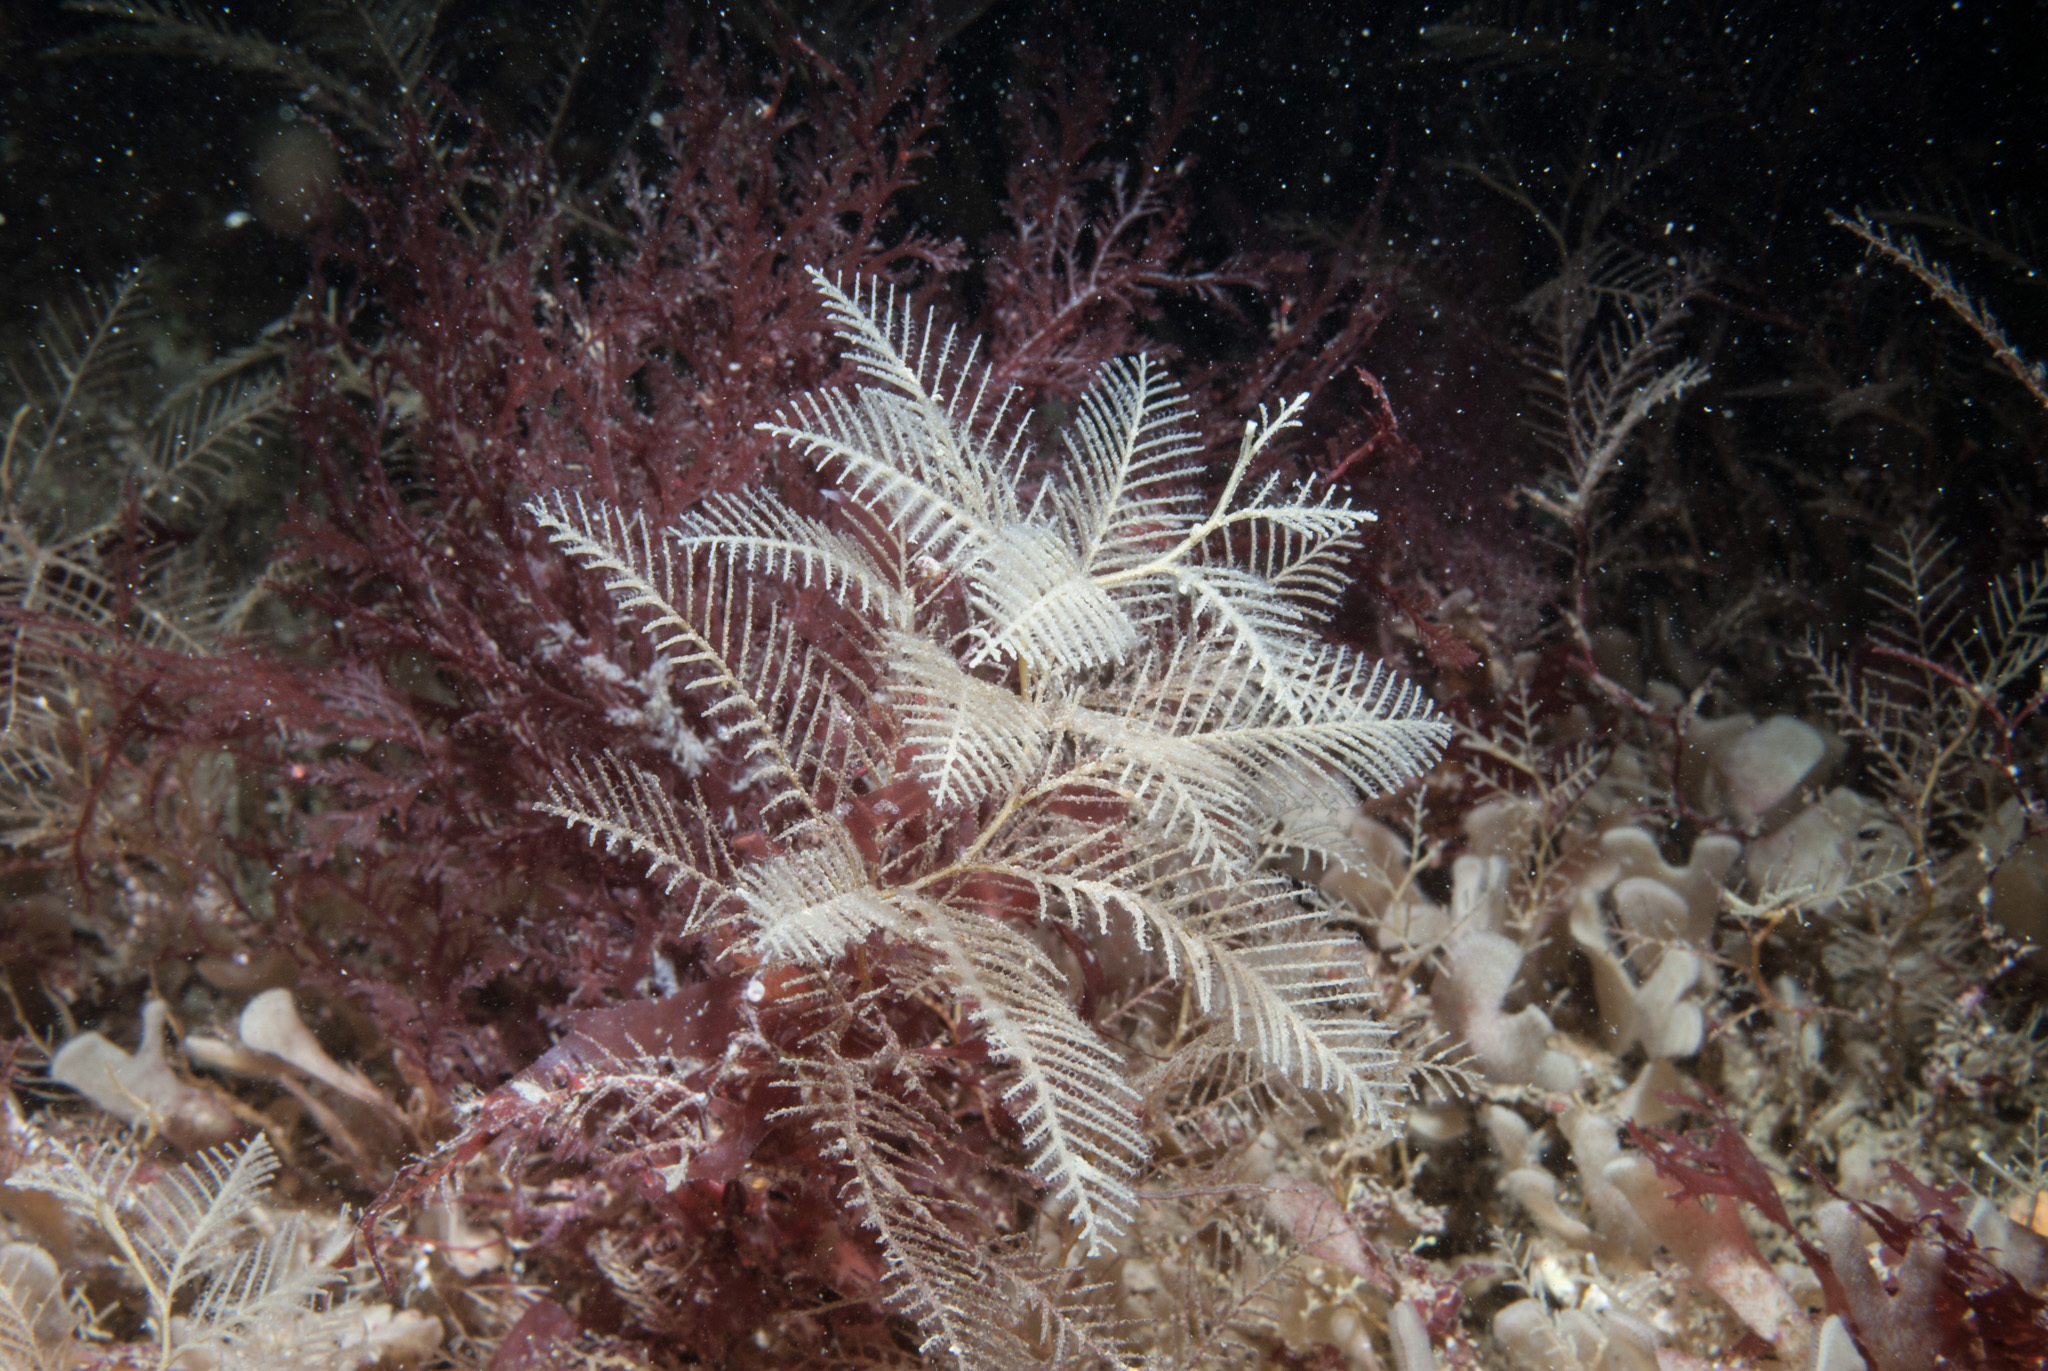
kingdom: Animalia
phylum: Cnidaria
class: Hydrozoa
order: Leptothecata
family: Sertulariidae
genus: Hydrallmania
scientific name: Hydrallmania falcata
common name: Sickle hydroid
